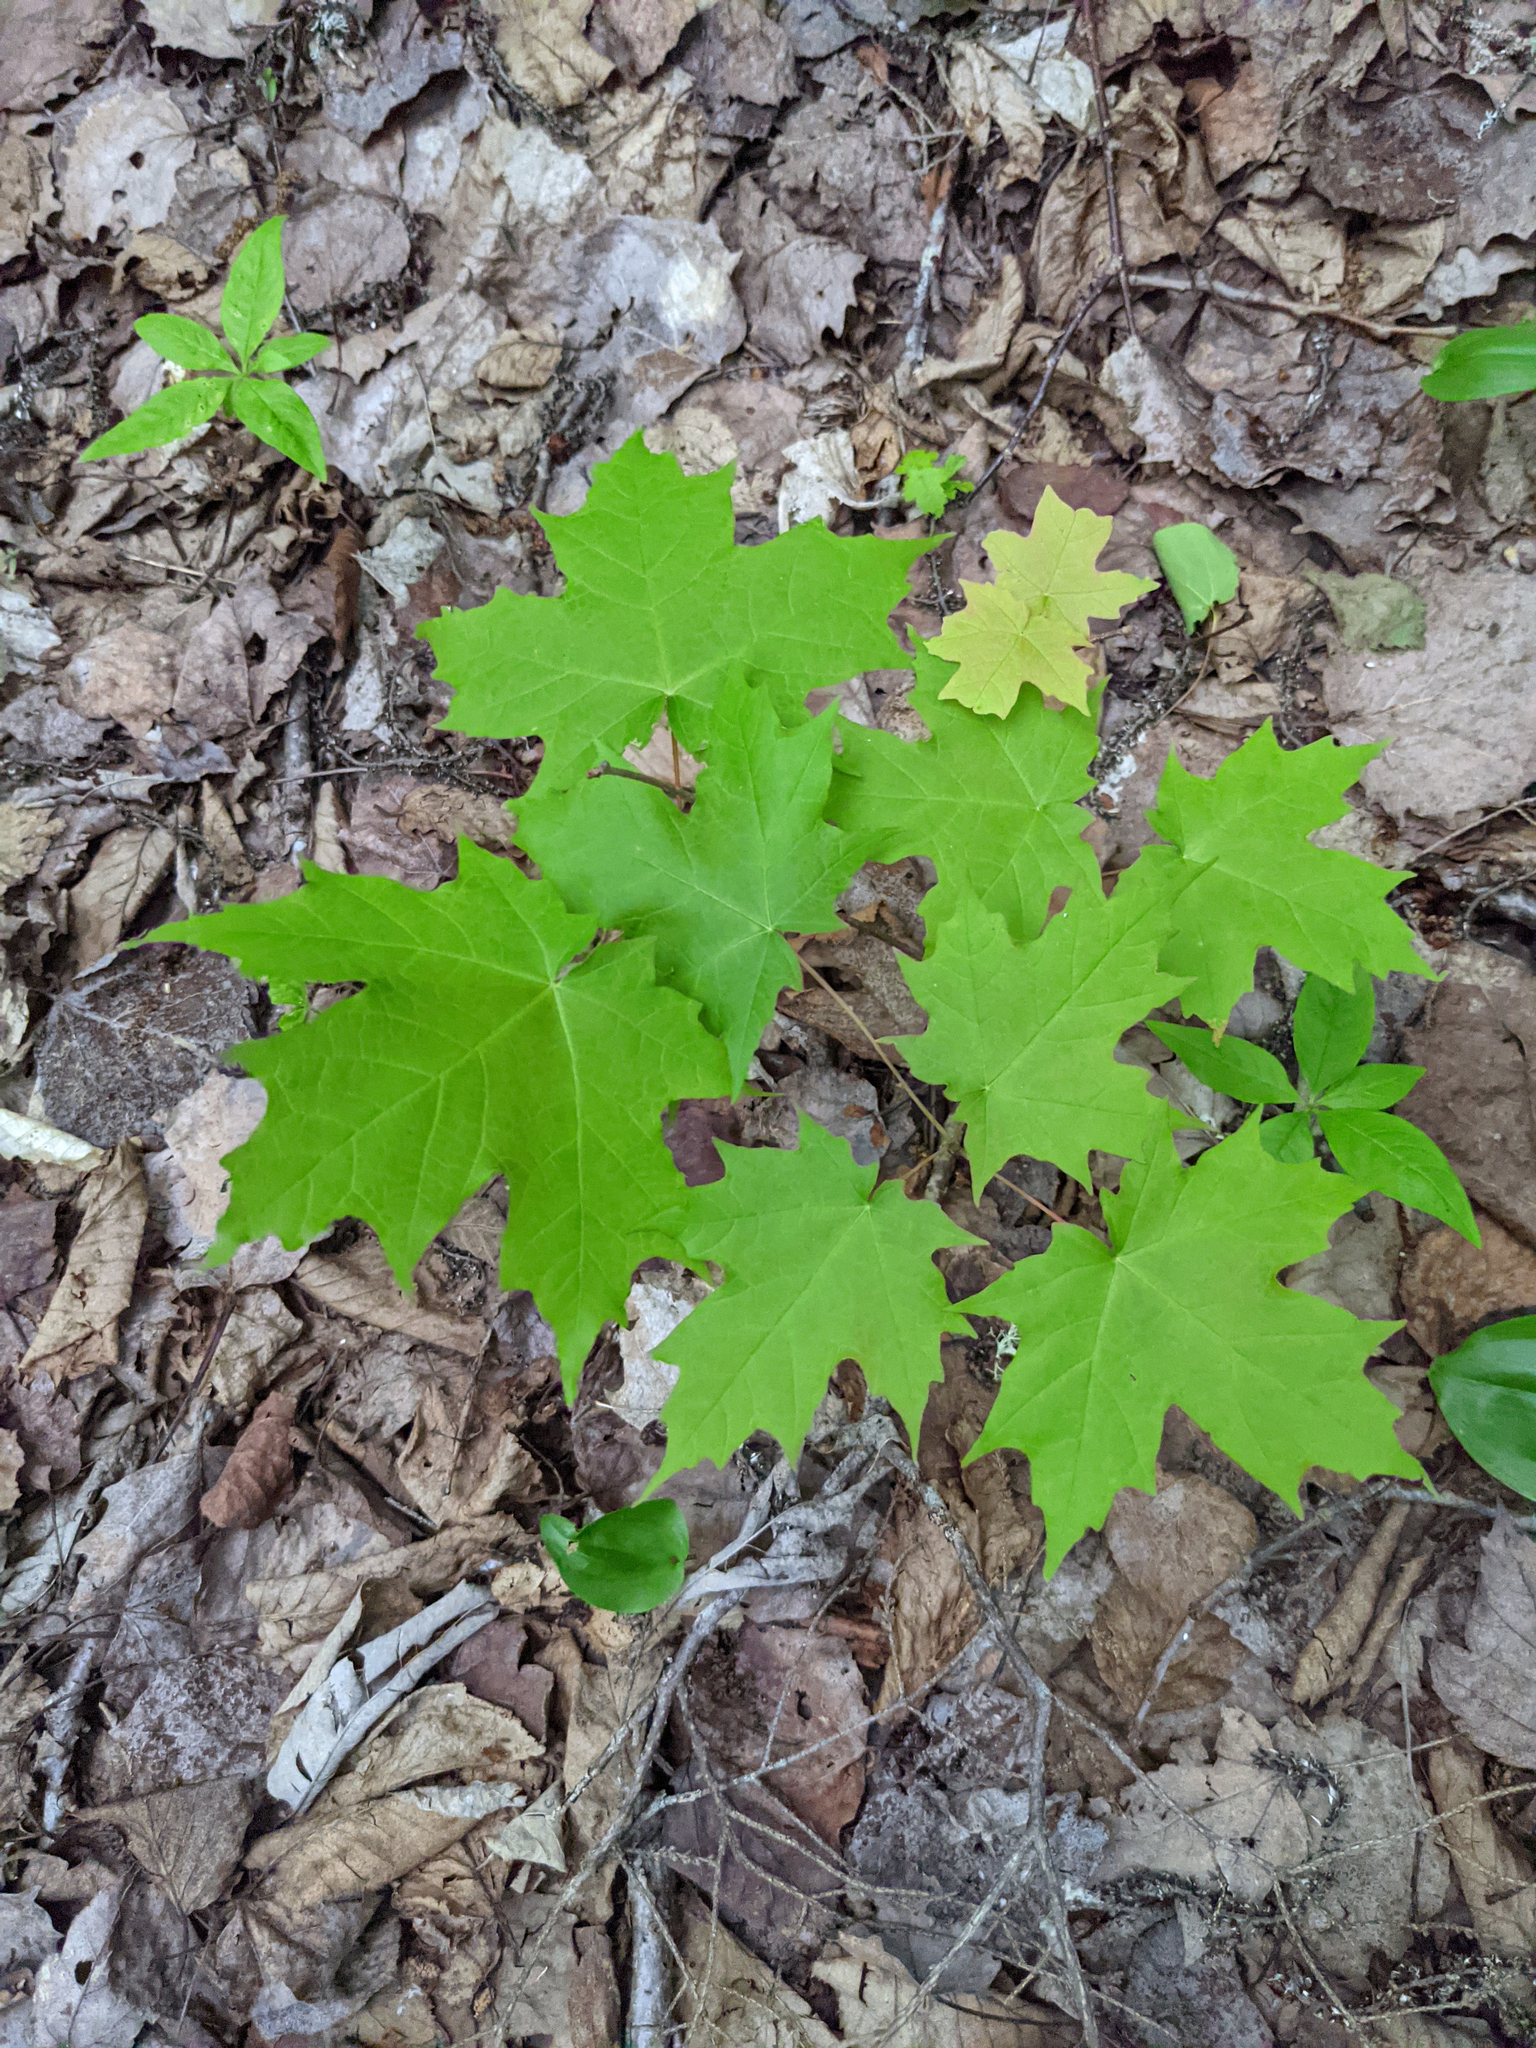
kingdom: Plantae
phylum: Tracheophyta
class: Magnoliopsida
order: Sapindales
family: Sapindaceae
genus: Acer
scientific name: Acer saccharum
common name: Sugar maple
